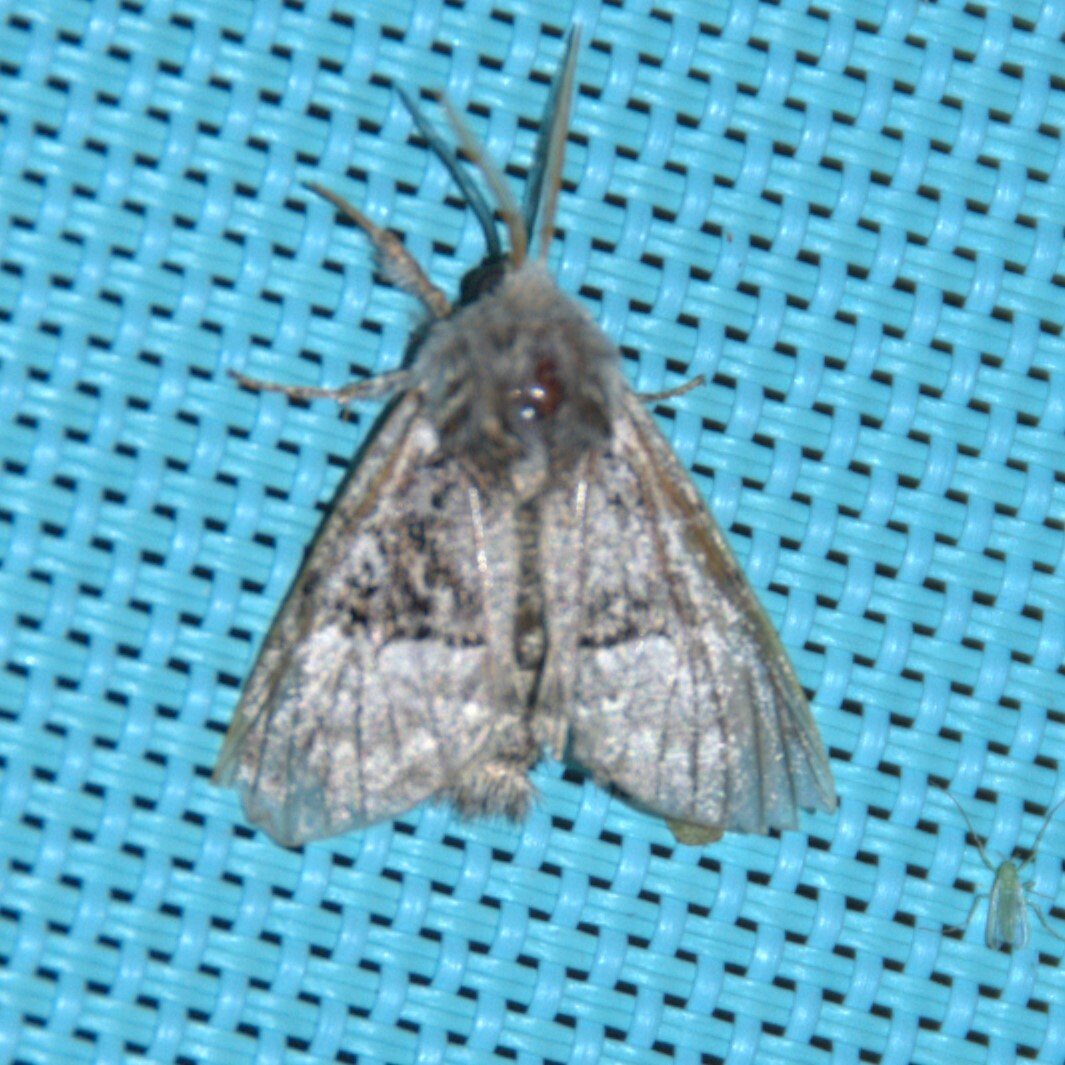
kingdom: Animalia
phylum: Arthropoda
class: Insecta
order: Lepidoptera
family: Noctuidae
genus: Colocasia
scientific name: Colocasia coryli
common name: Nut-tree tussock
